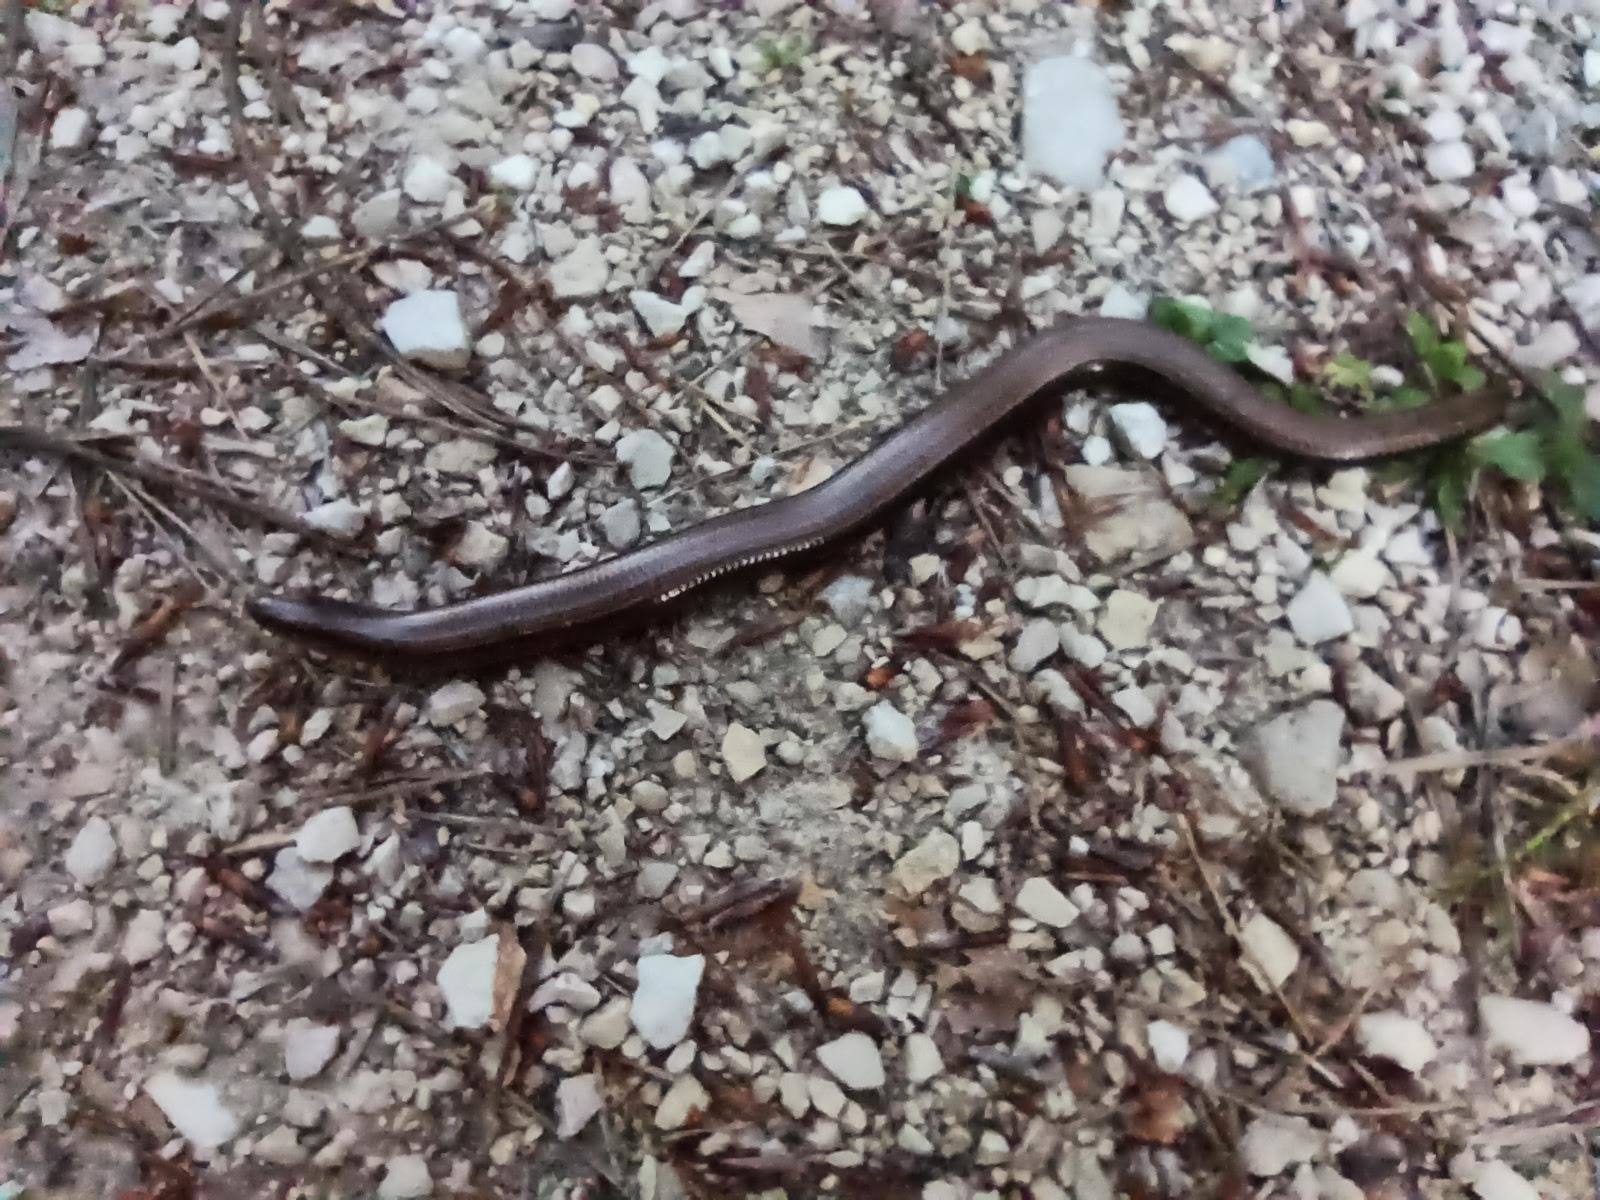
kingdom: Animalia
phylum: Chordata
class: Squamata
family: Anguidae
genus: Anguis
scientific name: Anguis fragilis
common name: Slow worm
